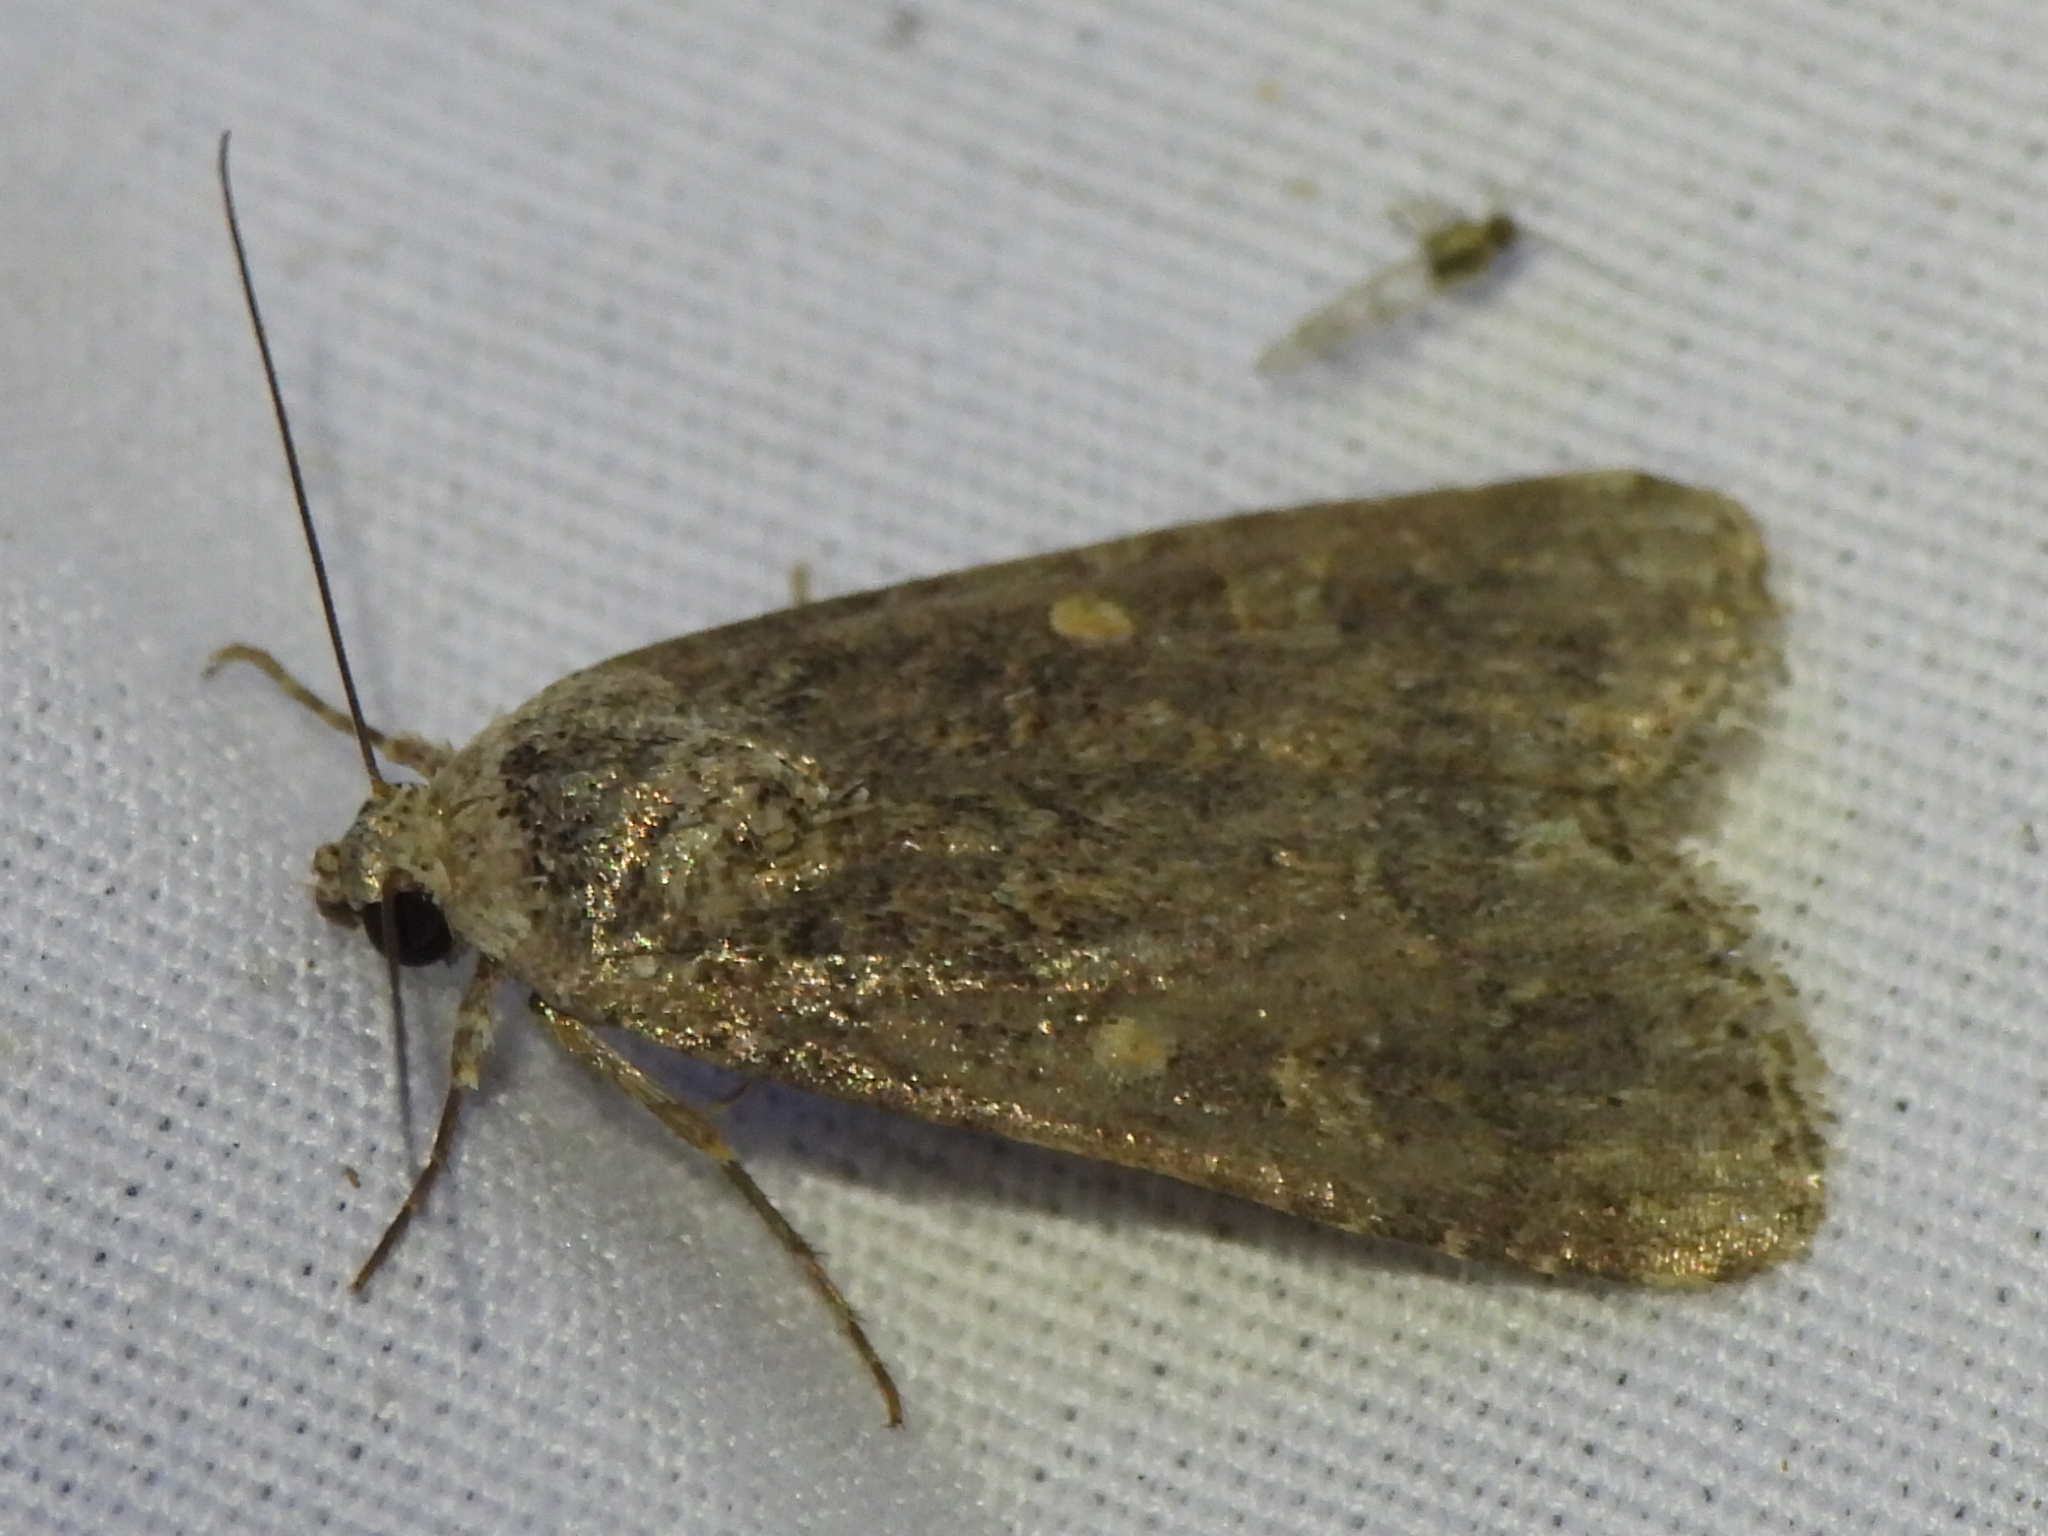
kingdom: Animalia
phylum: Arthropoda
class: Insecta
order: Lepidoptera
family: Noctuidae
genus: Spodoptera
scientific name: Spodoptera exigua
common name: Beet armyworm
